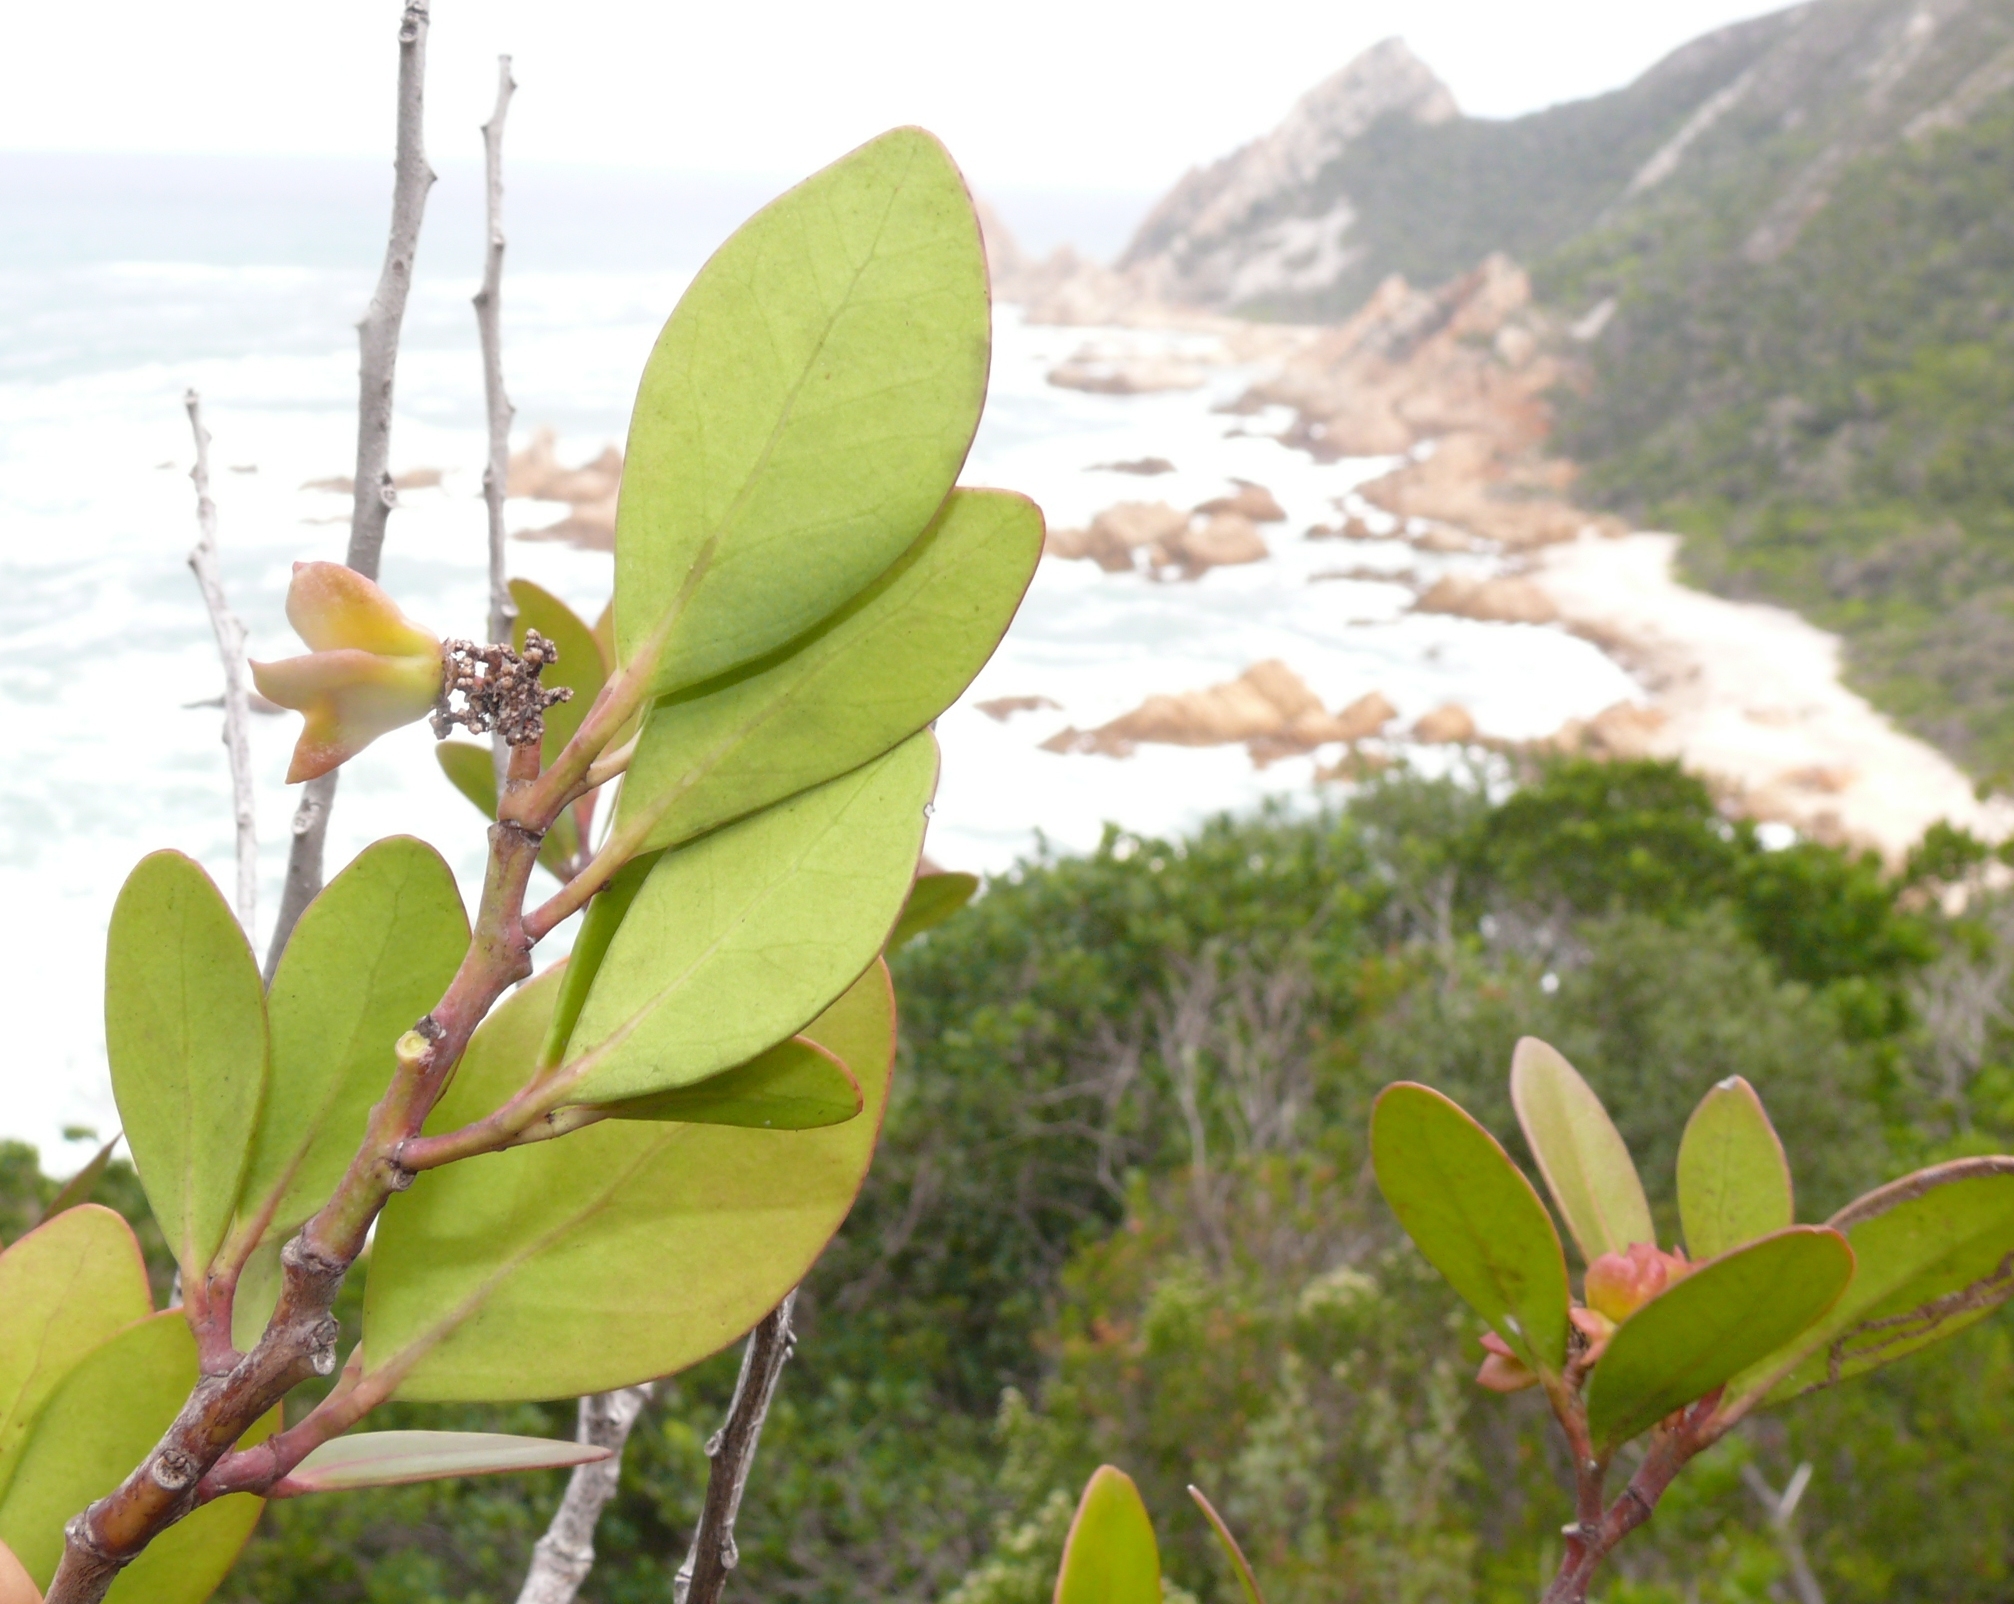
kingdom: Plantae
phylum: Tracheophyta
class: Magnoliopsida
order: Celastrales
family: Celastraceae
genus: Pterocelastrus
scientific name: Pterocelastrus tricuspidatus
